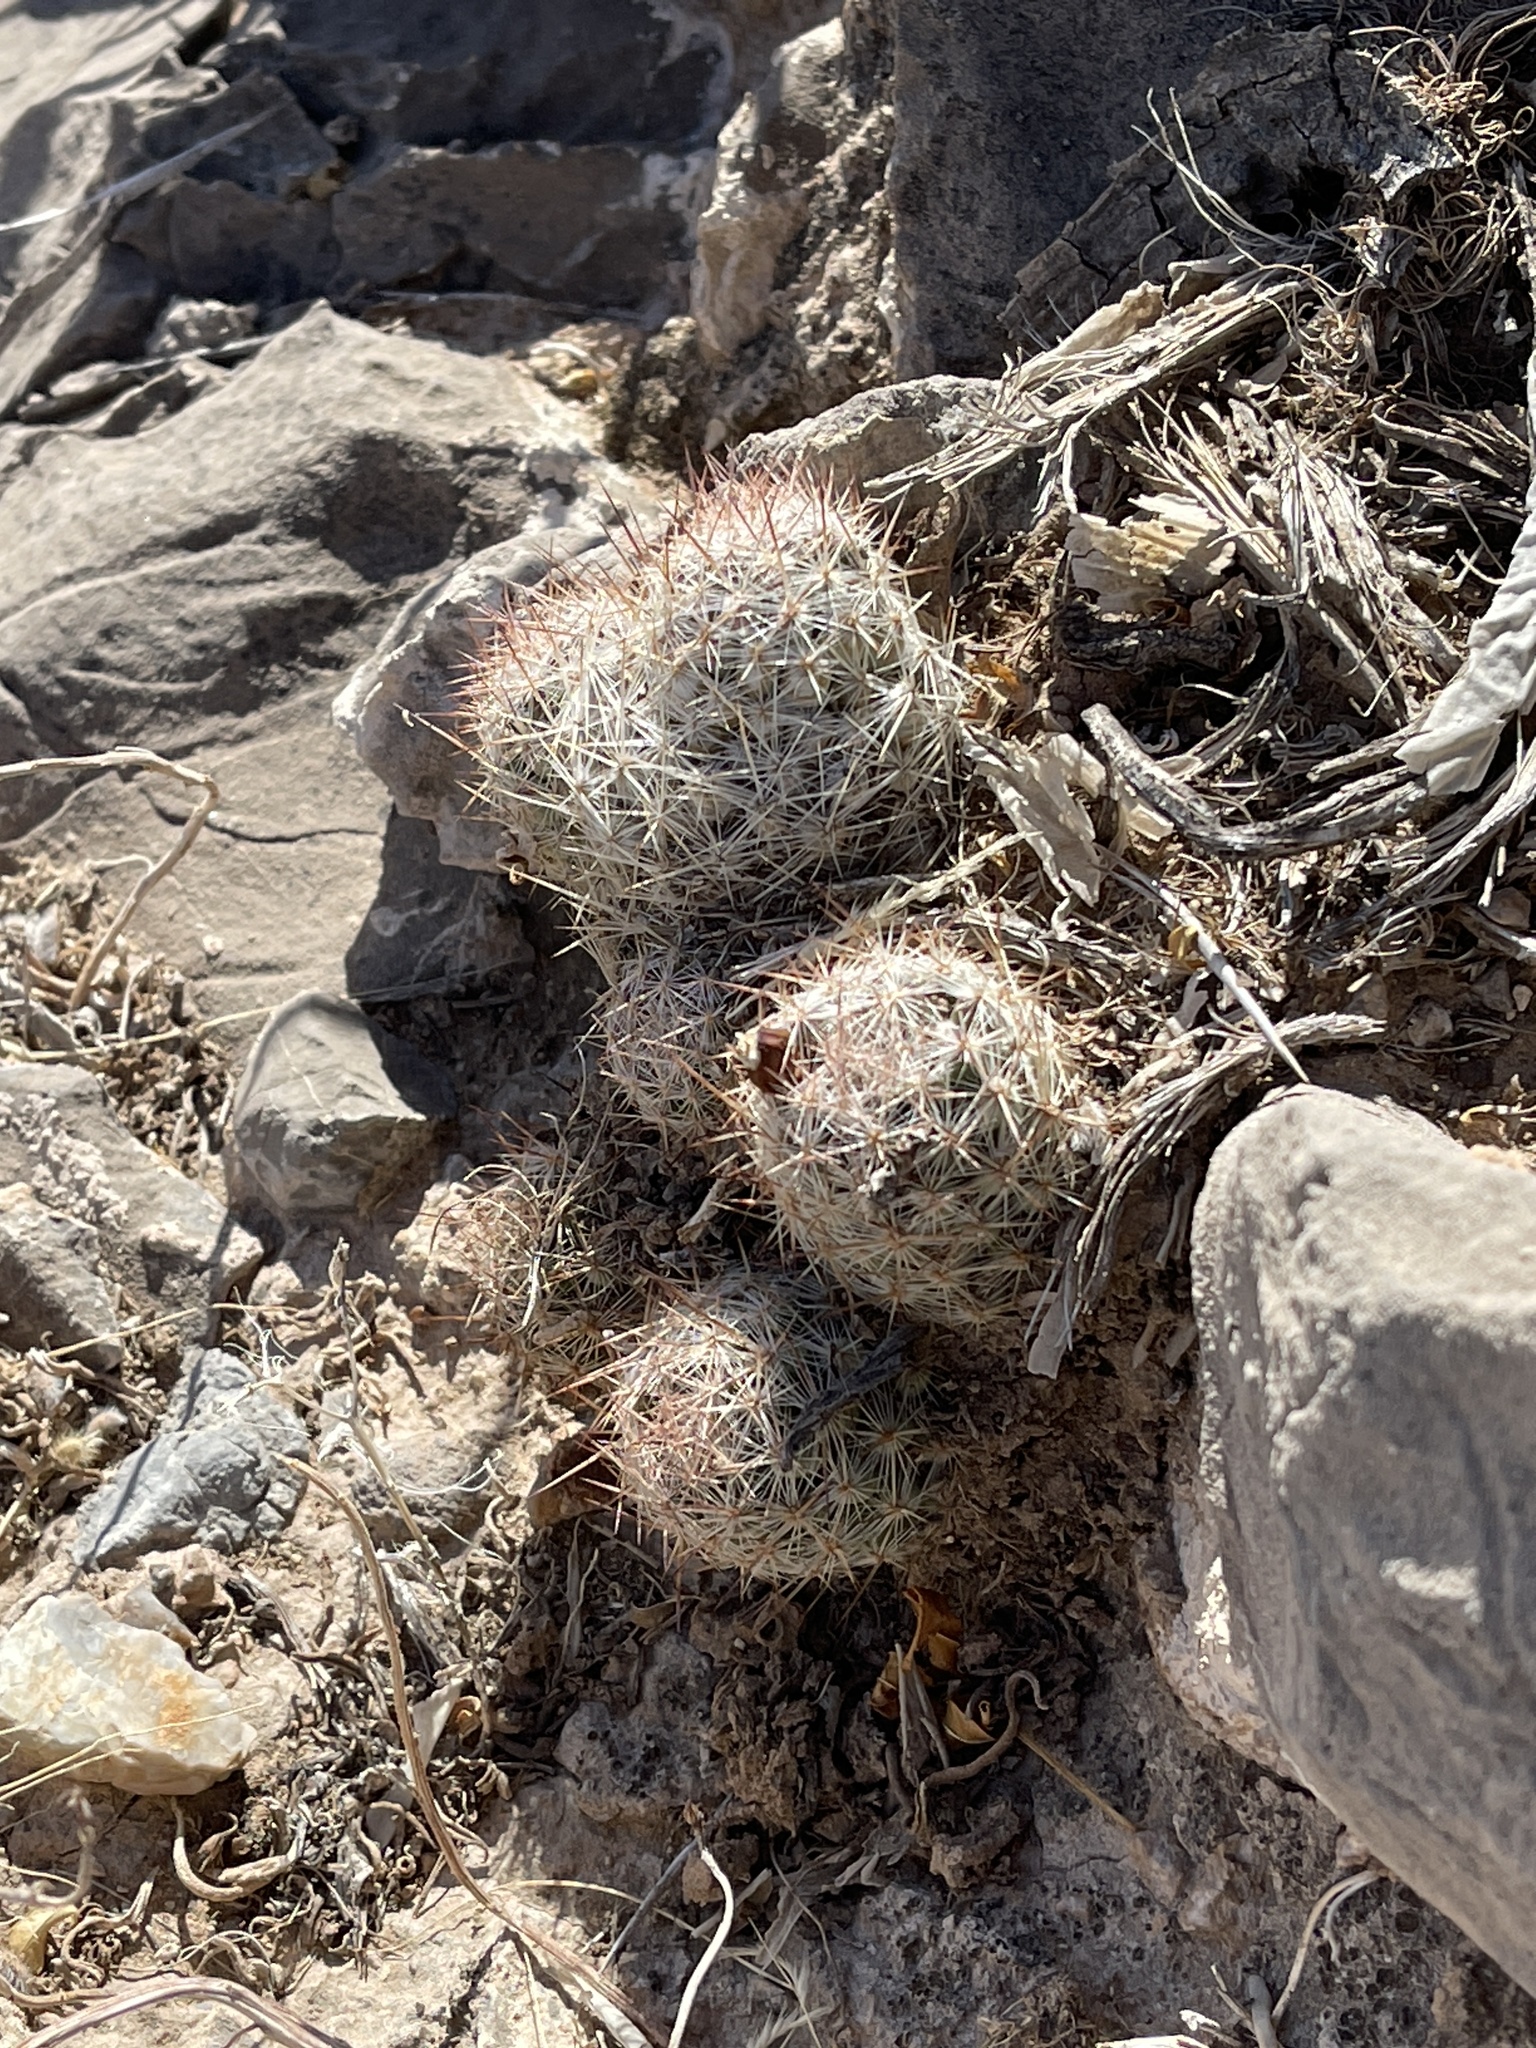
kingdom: Plantae
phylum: Tracheophyta
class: Magnoliopsida
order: Caryophyllales
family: Cactaceae
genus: Pelecyphora
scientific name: Pelecyphora tuberculosa
